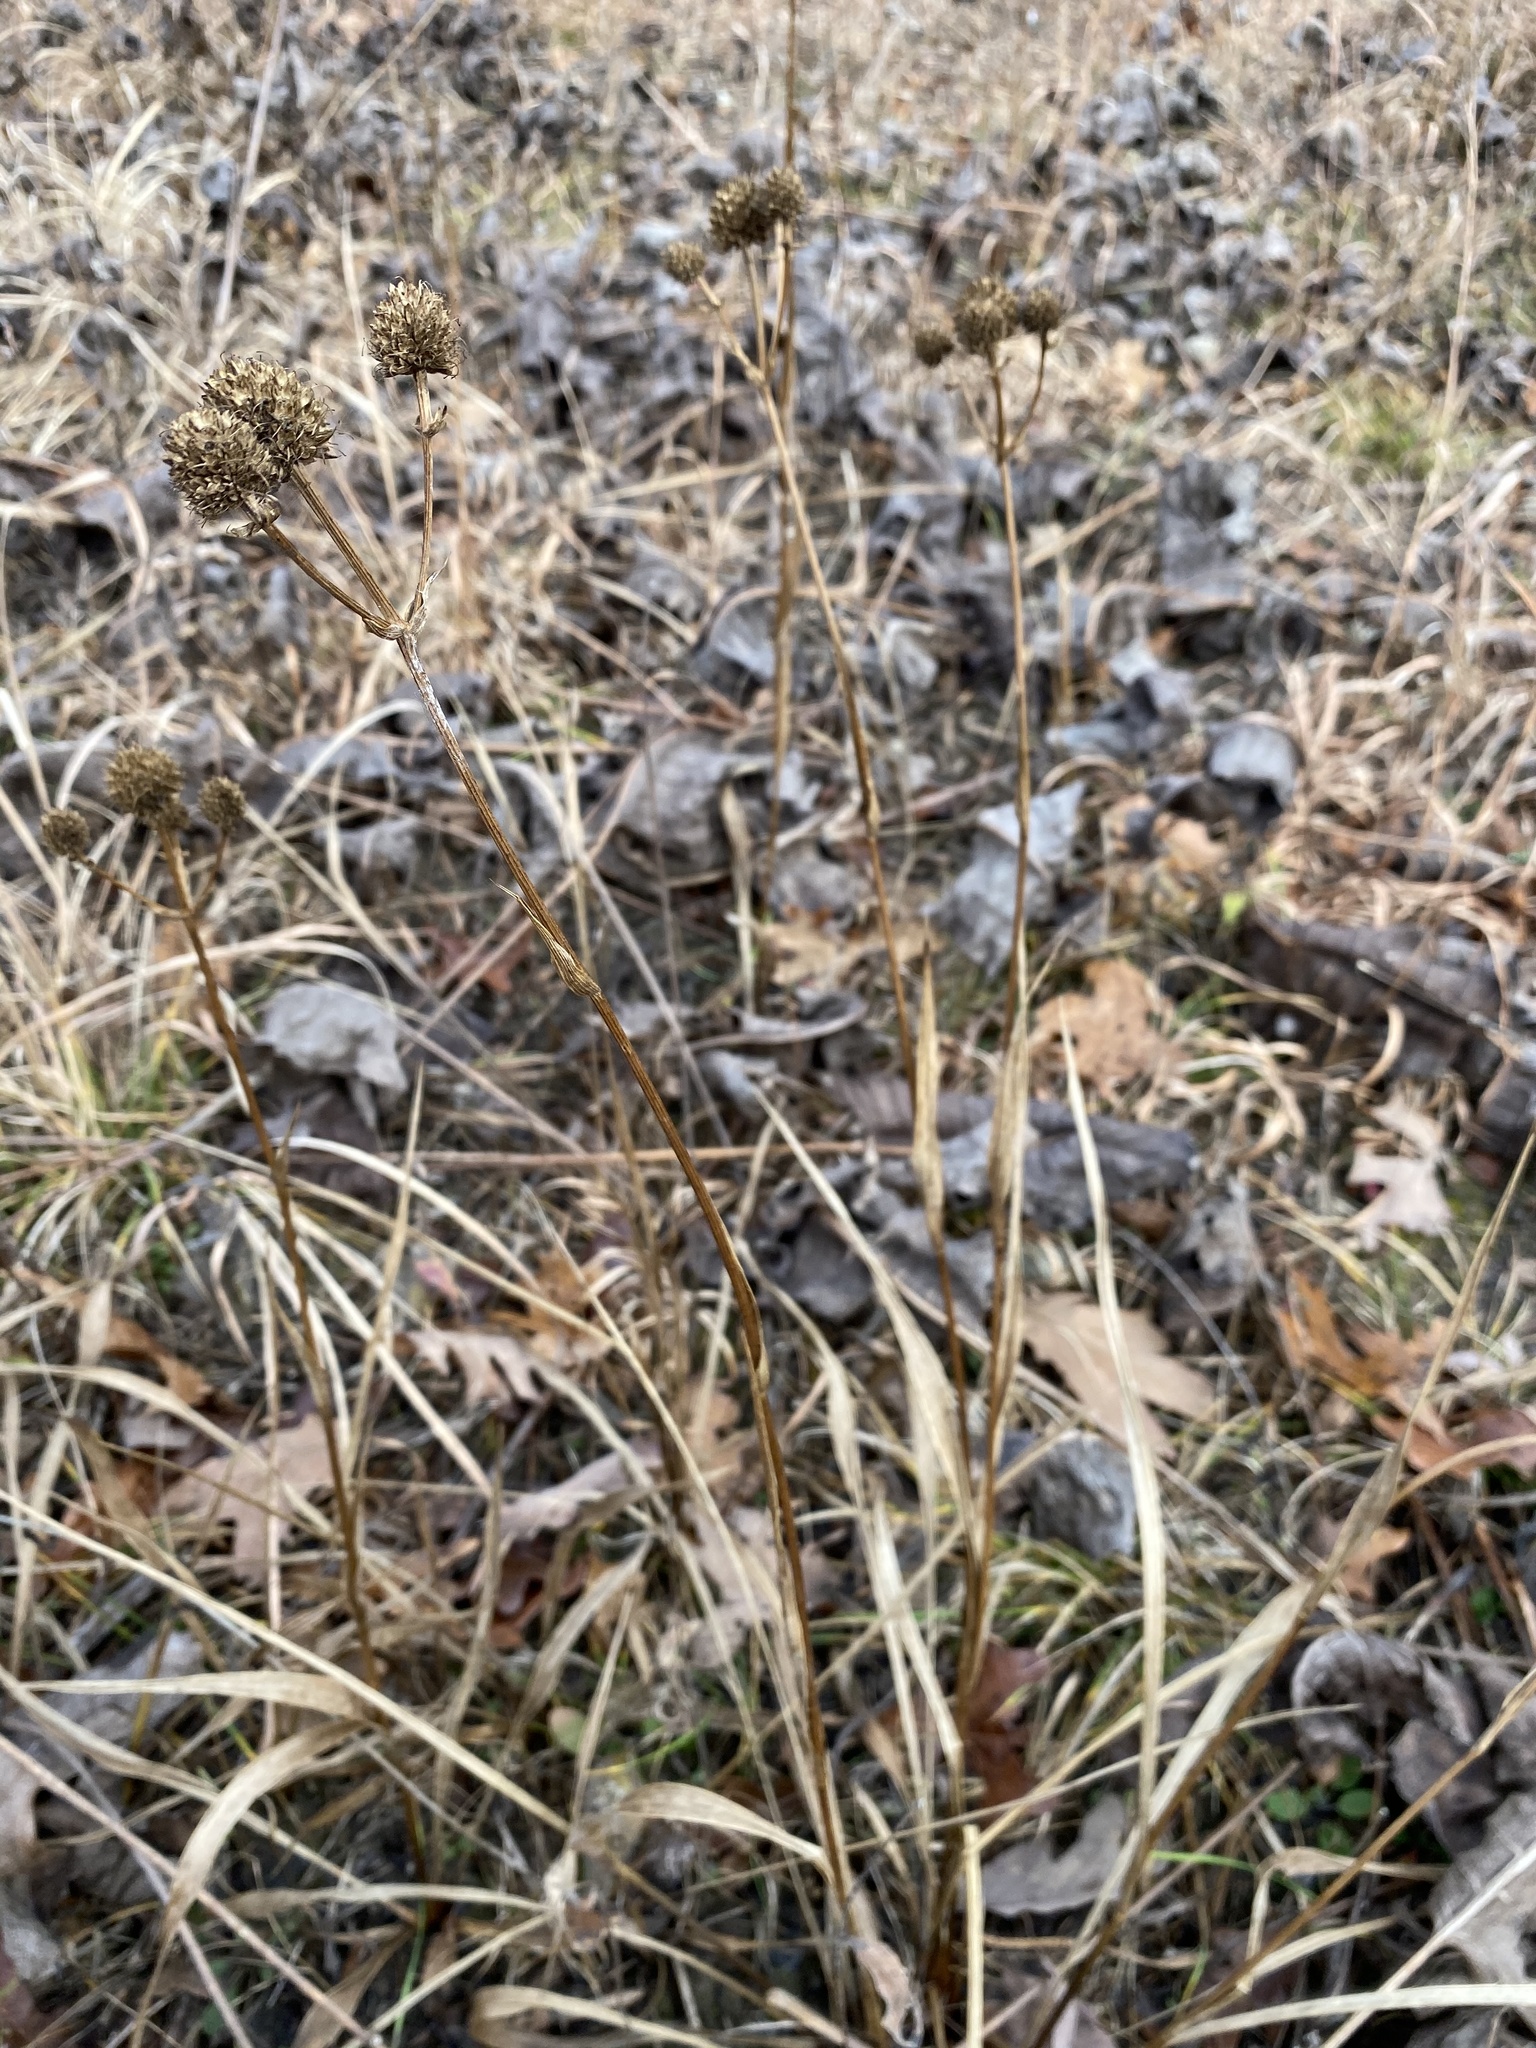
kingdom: Plantae
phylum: Tracheophyta
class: Magnoliopsida
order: Apiales
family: Apiaceae
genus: Eryngium
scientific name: Eryngium yuccifolium
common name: Button eryngo
